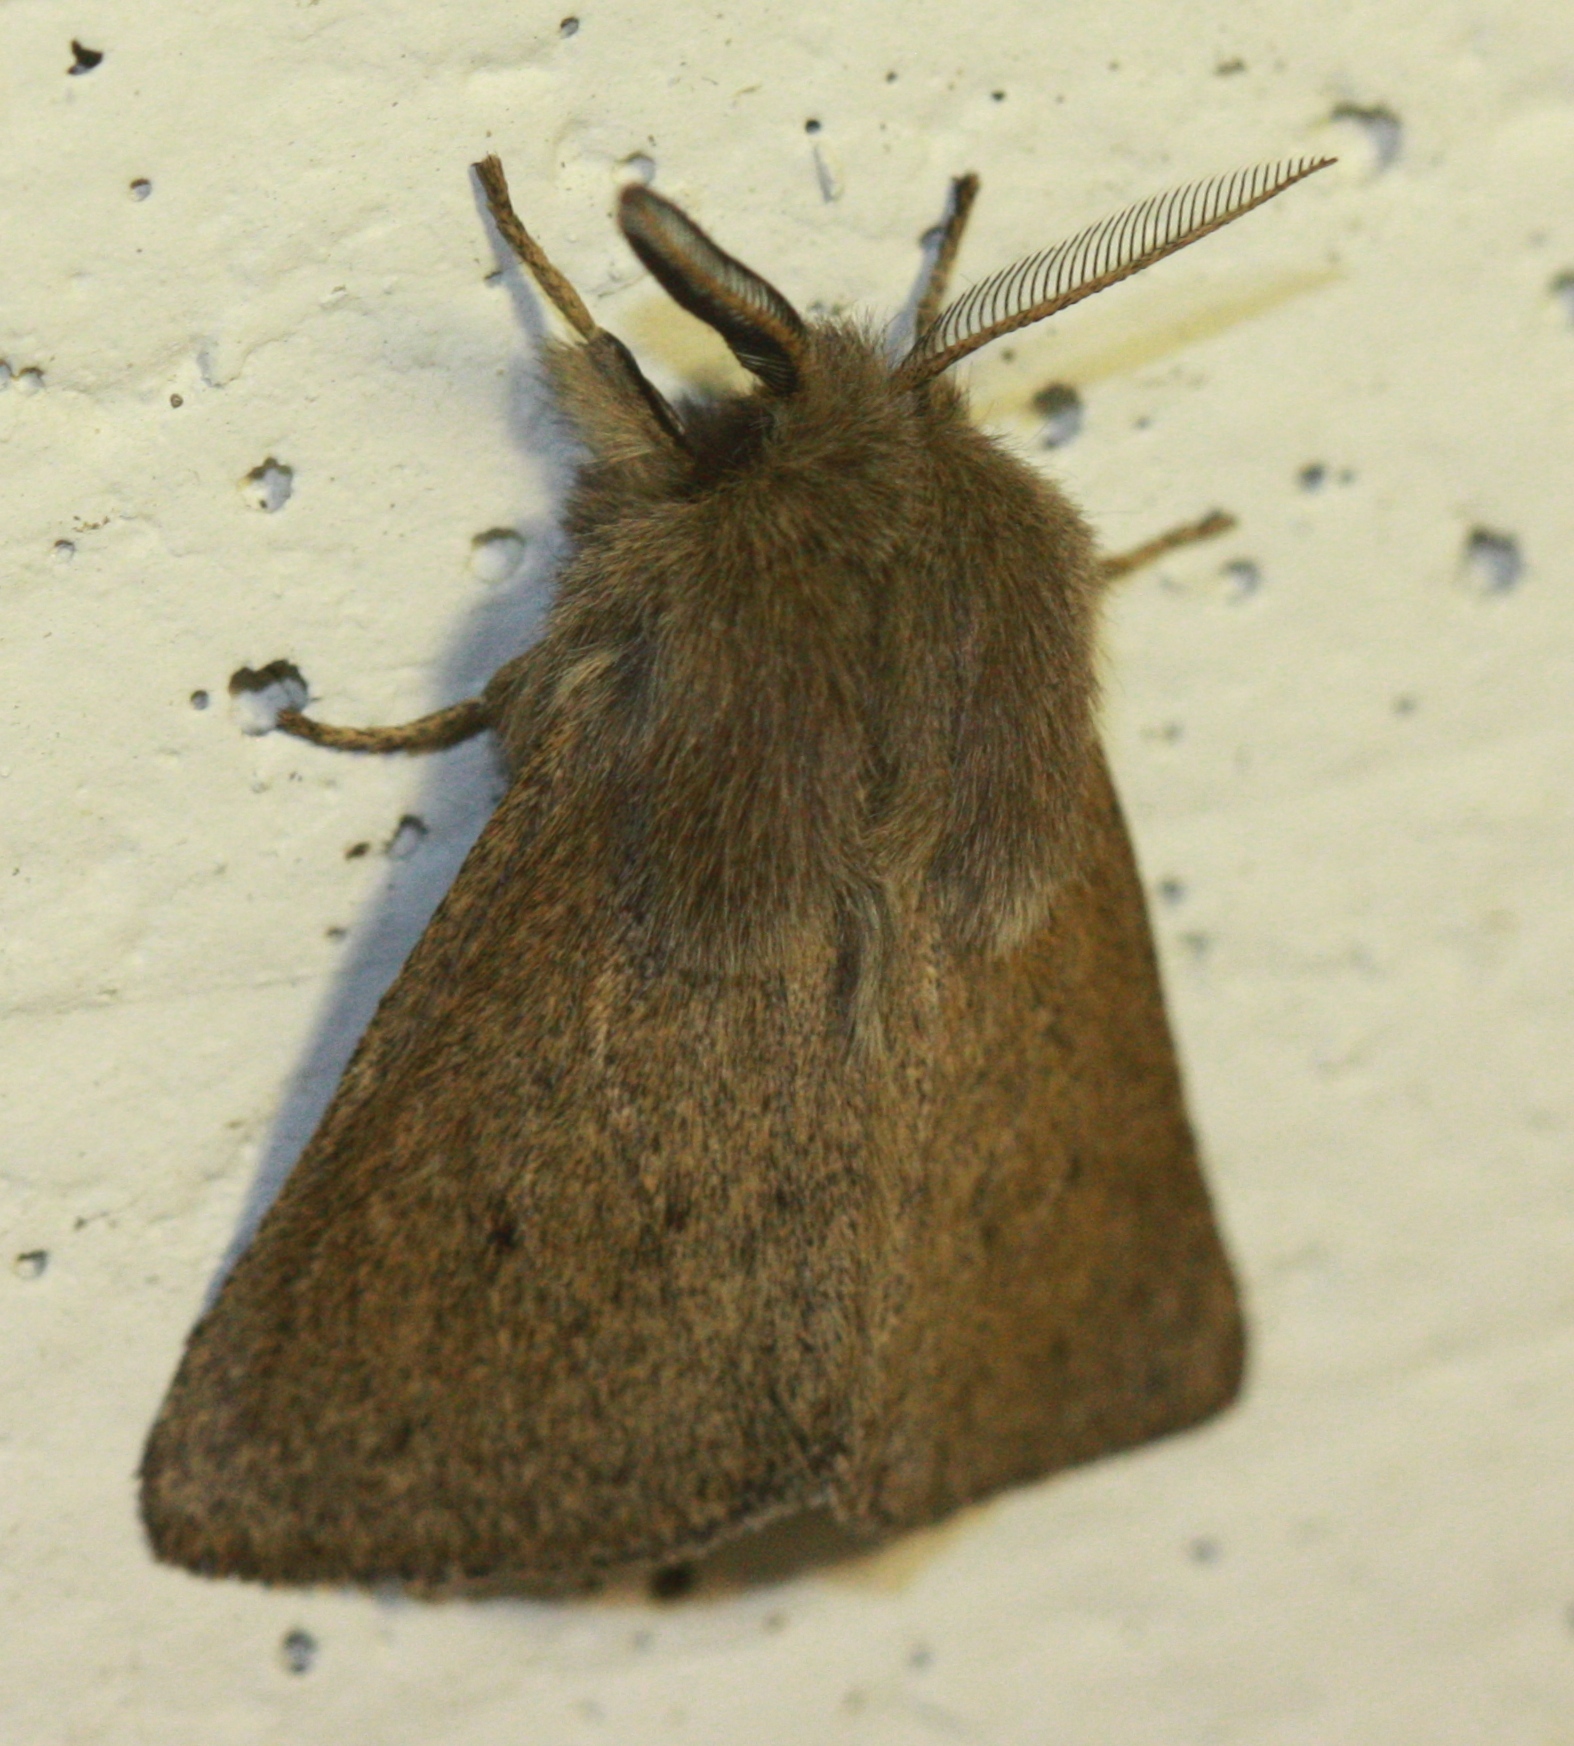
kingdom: Animalia
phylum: Arthropoda
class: Insecta
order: Lepidoptera
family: Erebidae
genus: Spilosoma
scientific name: Spilosoma vagans
